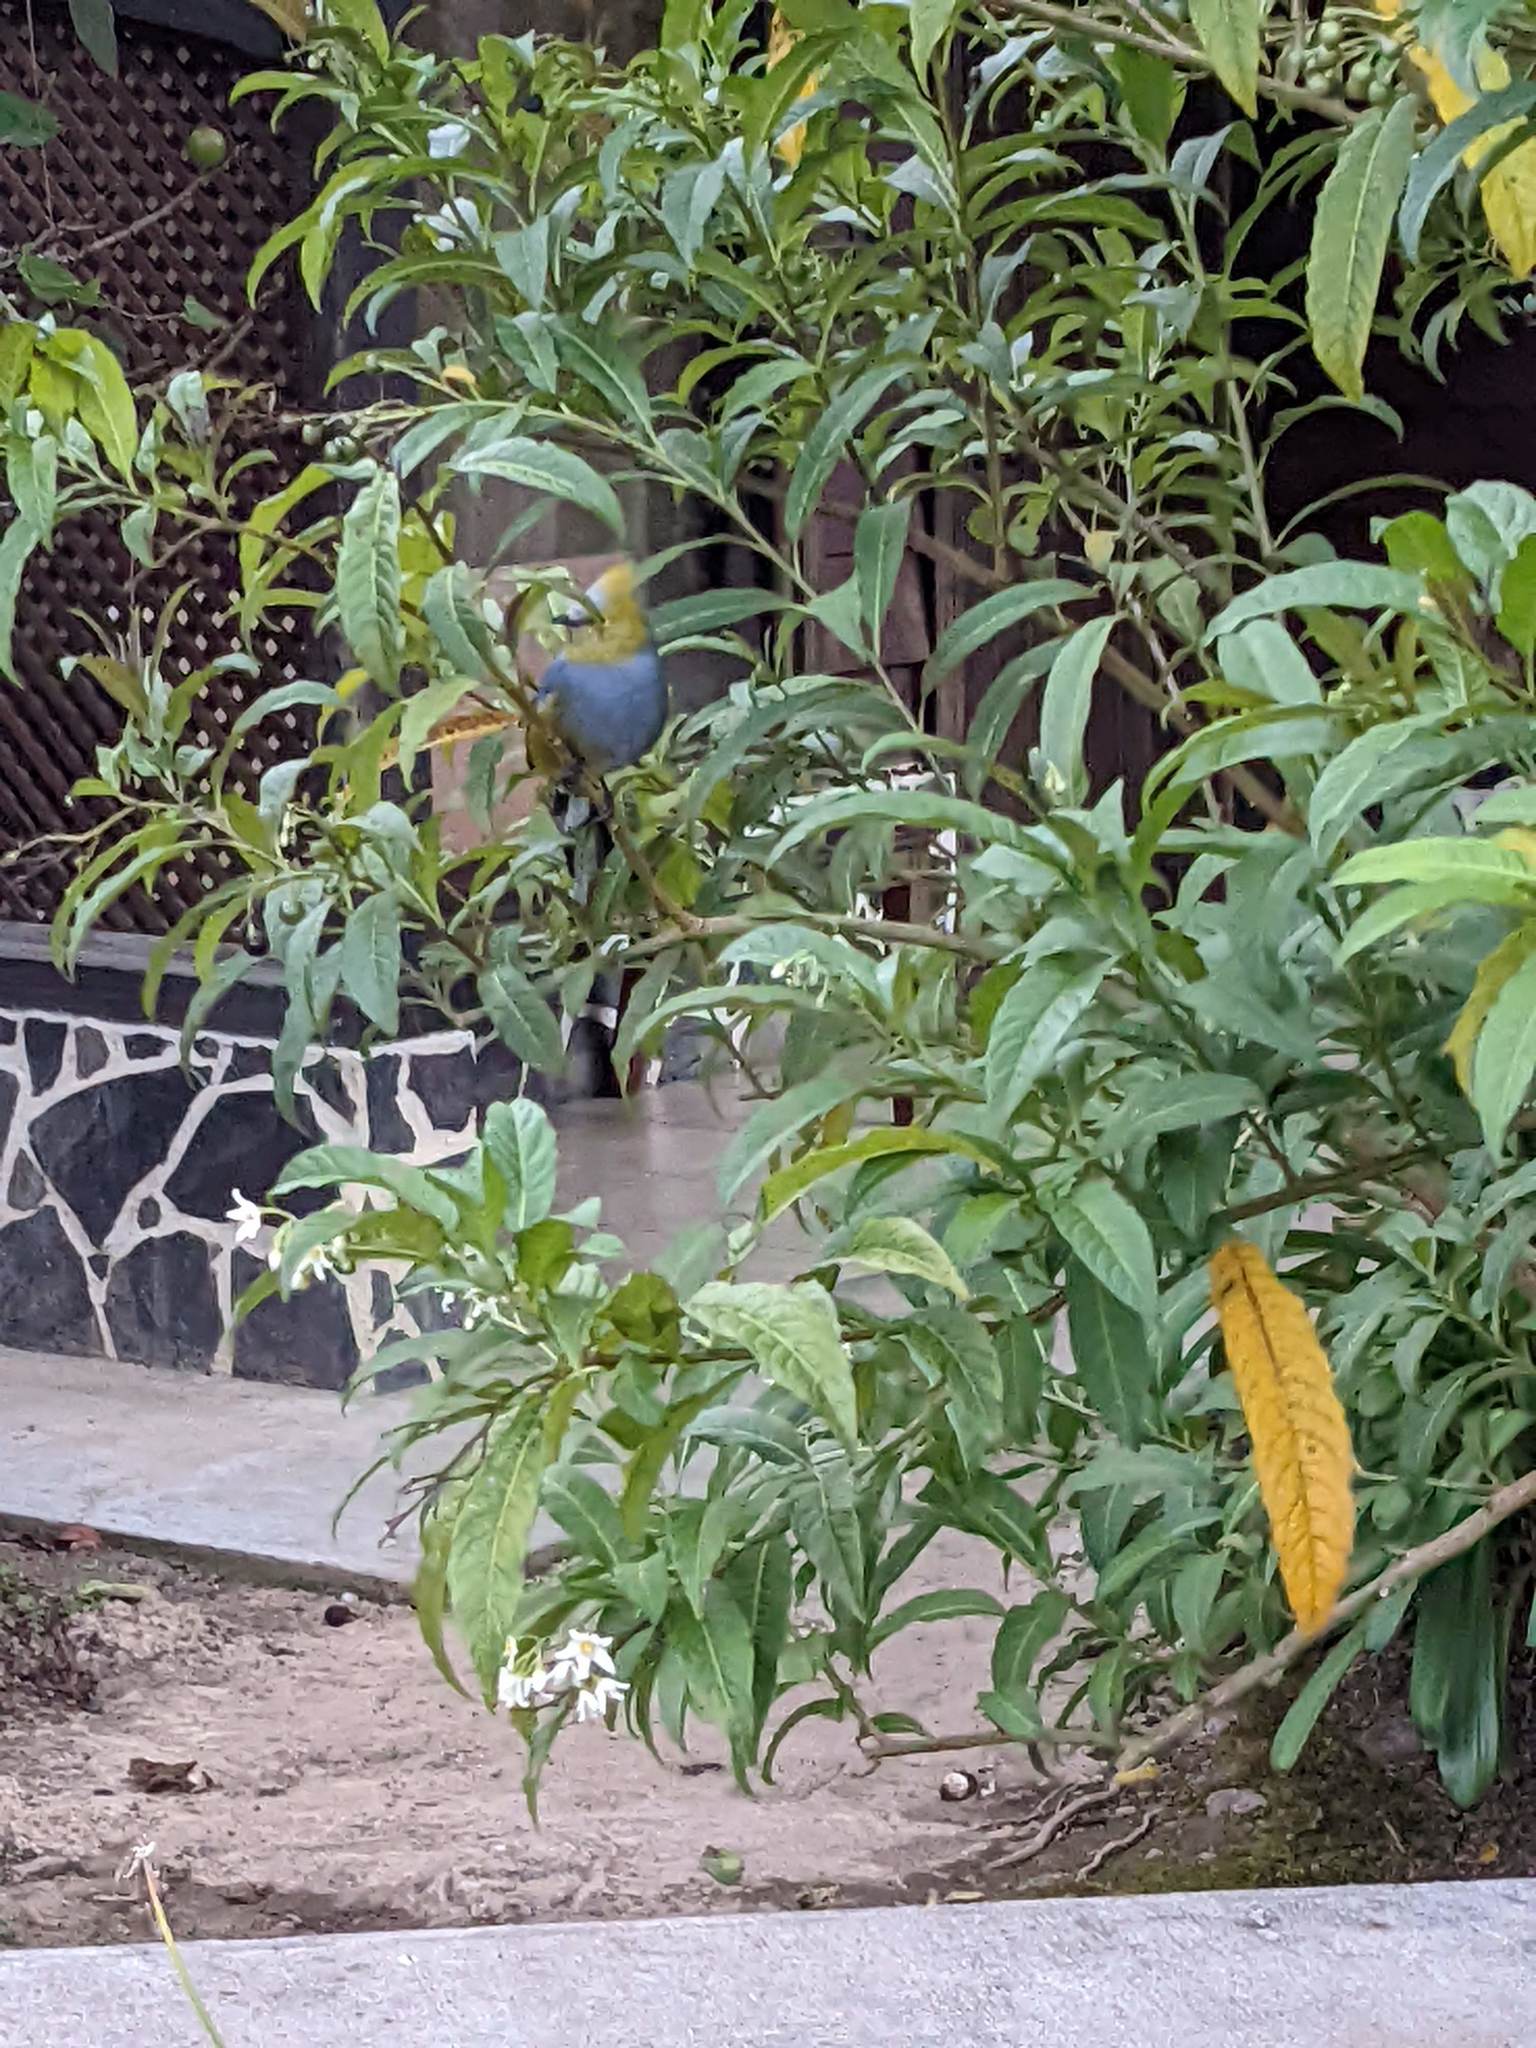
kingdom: Animalia
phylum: Chordata
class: Aves
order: Passeriformes
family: Ptilogonatidae
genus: Ptilogonys
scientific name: Ptilogonys caudatus
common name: Long-tailed silky-flycatcher
